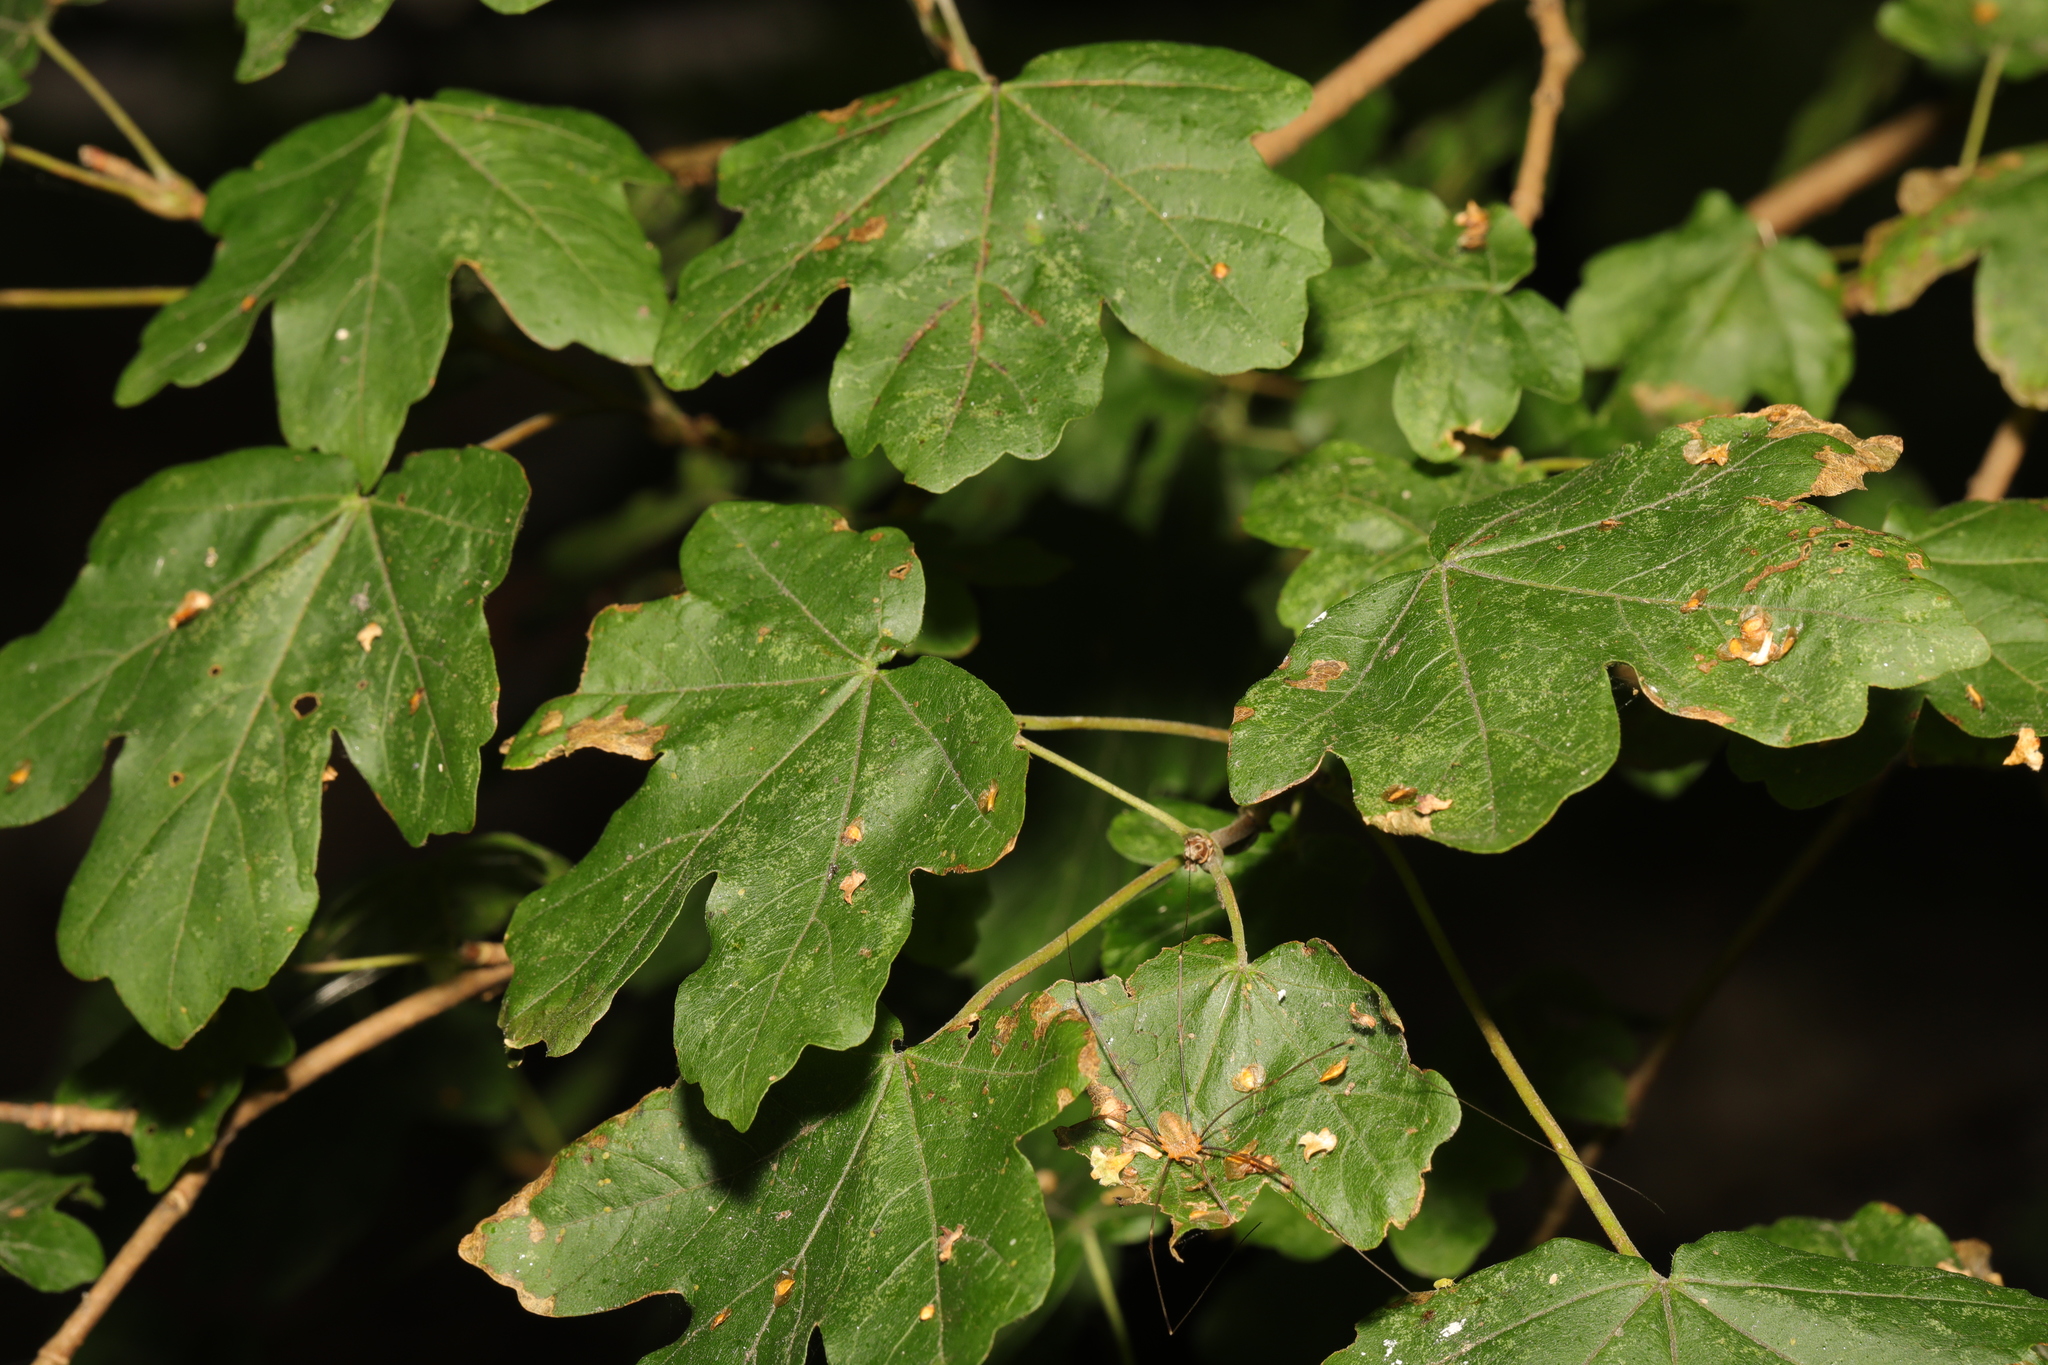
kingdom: Plantae
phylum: Tracheophyta
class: Magnoliopsida
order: Sapindales
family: Sapindaceae
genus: Acer
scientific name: Acer campestre
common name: Field maple
